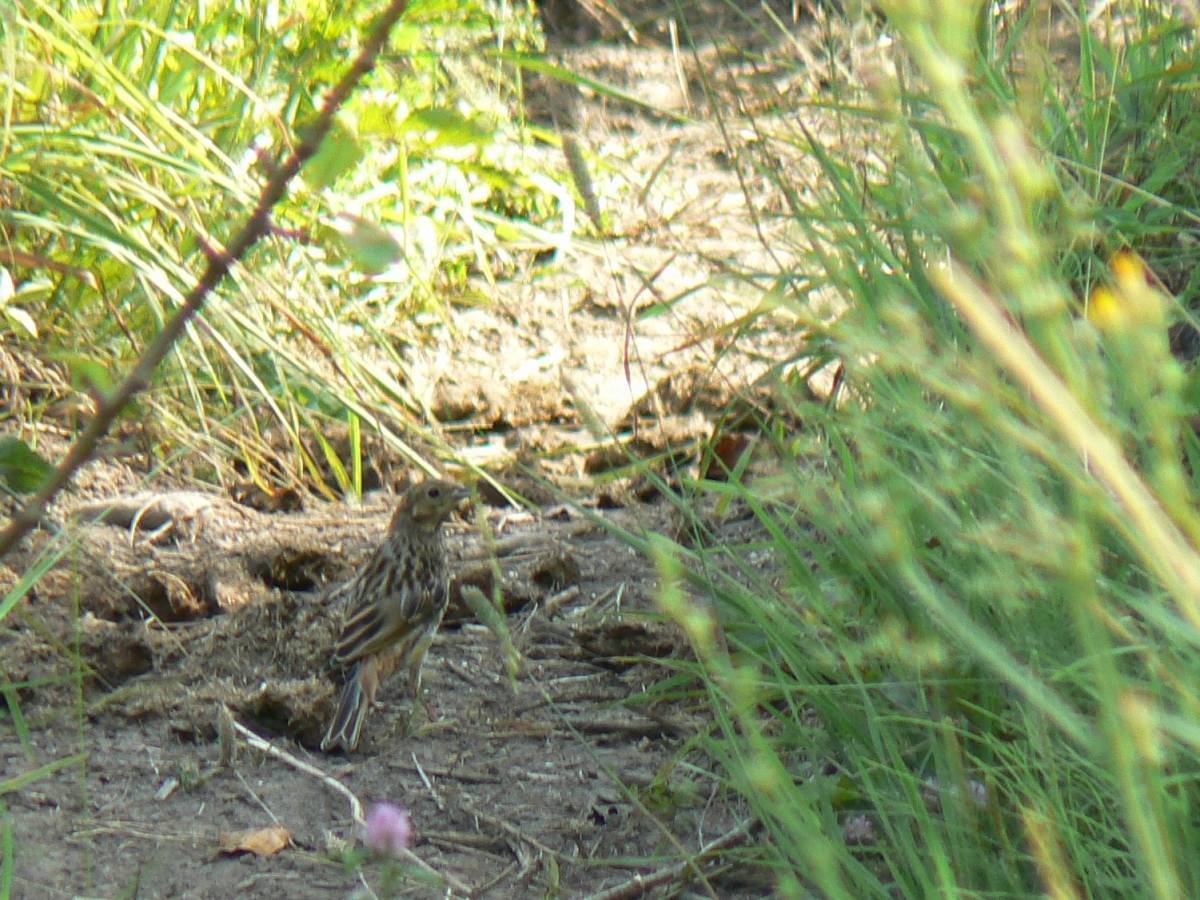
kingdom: Animalia
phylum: Chordata
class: Aves
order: Passeriformes
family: Emberizidae
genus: Emberiza
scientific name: Emberiza citrinella
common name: Yellowhammer
